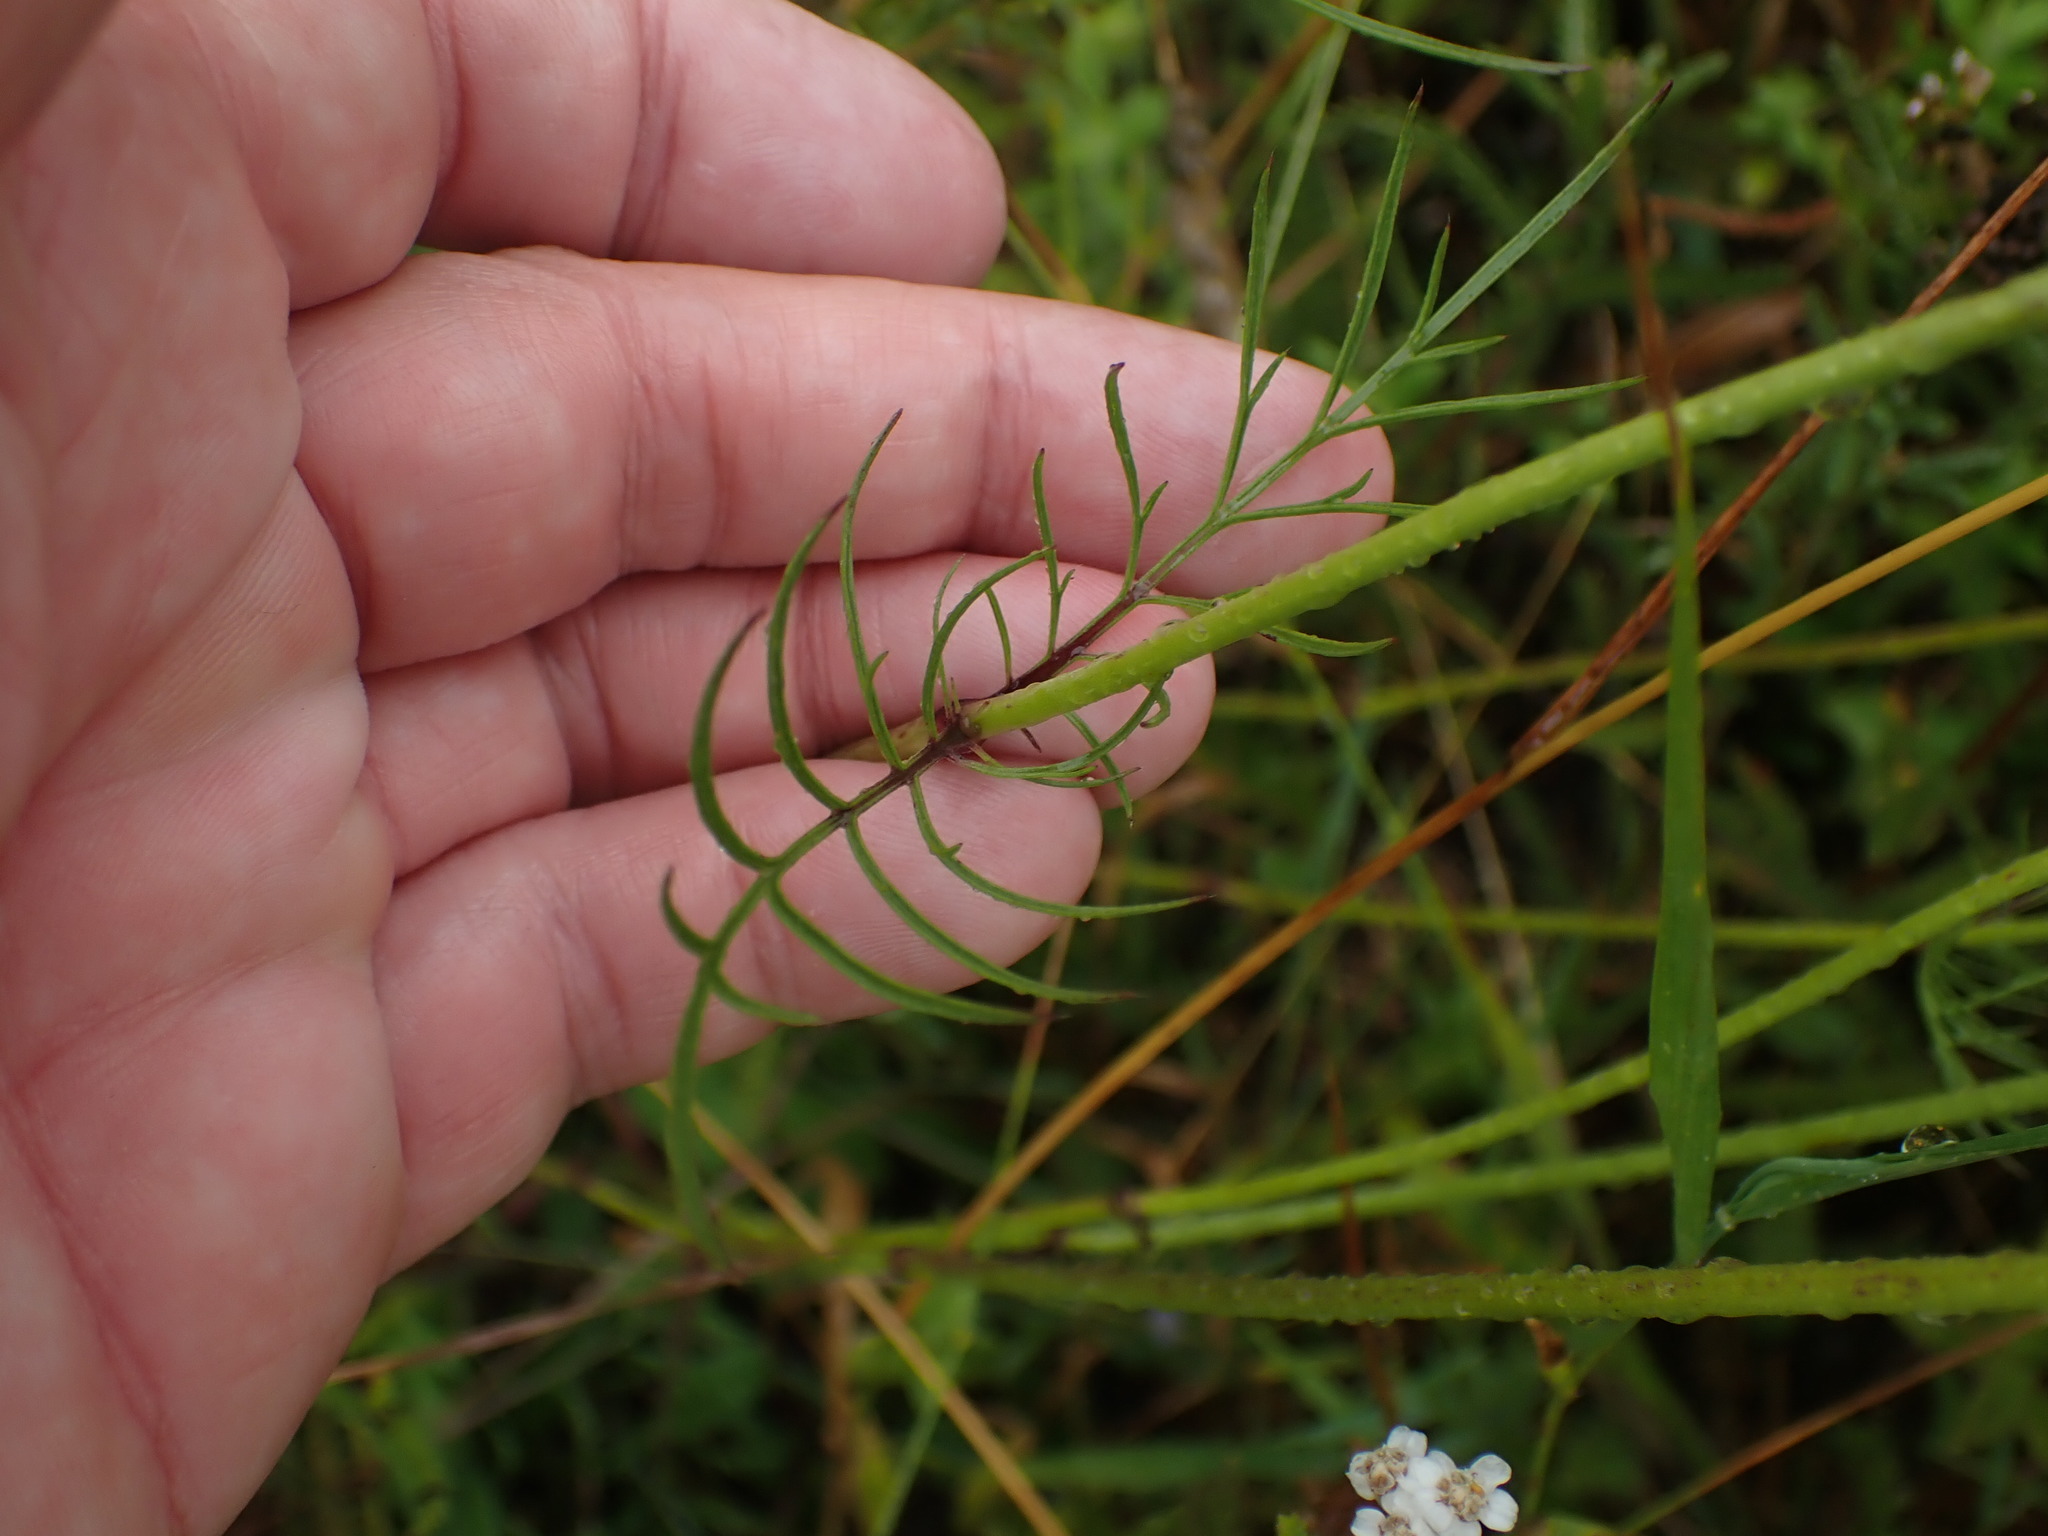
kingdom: Plantae
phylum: Tracheophyta
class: Magnoliopsida
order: Dipsacales
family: Caprifoliaceae
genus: Scabiosa
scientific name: Scabiosa columbaria
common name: Small scabious
